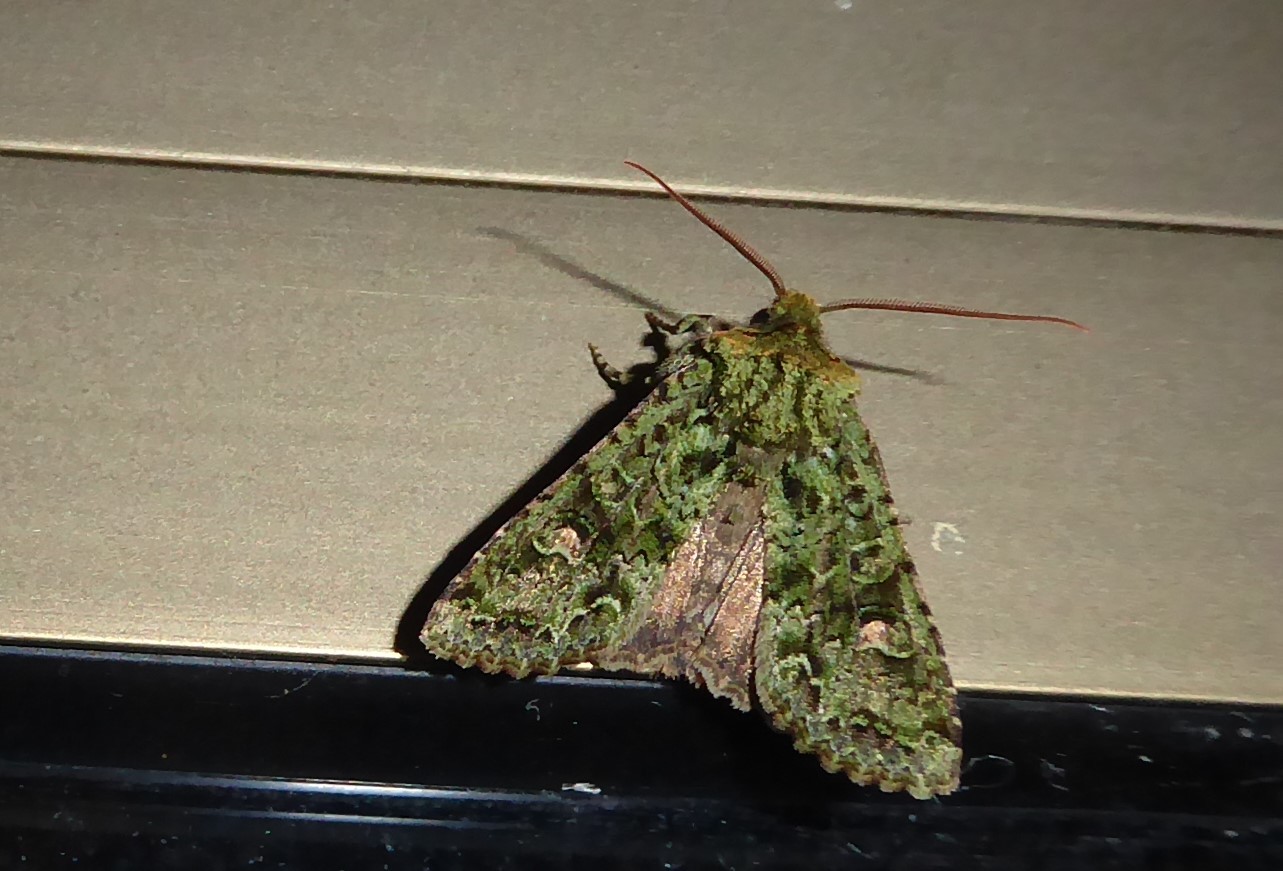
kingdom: Animalia
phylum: Arthropoda
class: Insecta
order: Lepidoptera
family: Noctuidae
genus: Ichneutica
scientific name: Ichneutica
